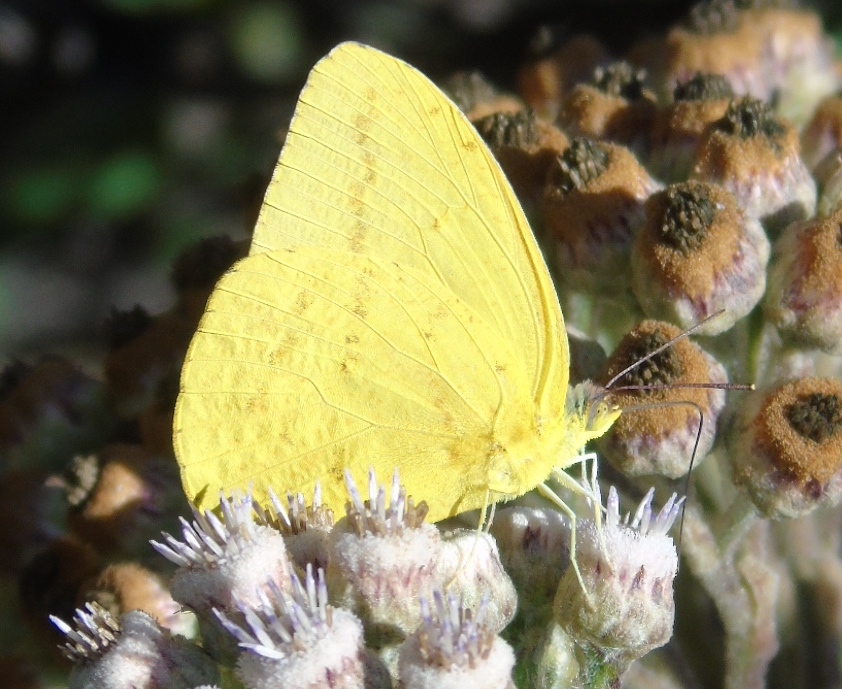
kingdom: Animalia
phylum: Arthropoda
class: Insecta
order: Lepidoptera
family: Pieridae
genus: Phoebis
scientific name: Phoebis agarithe
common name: Large orange sulphur
